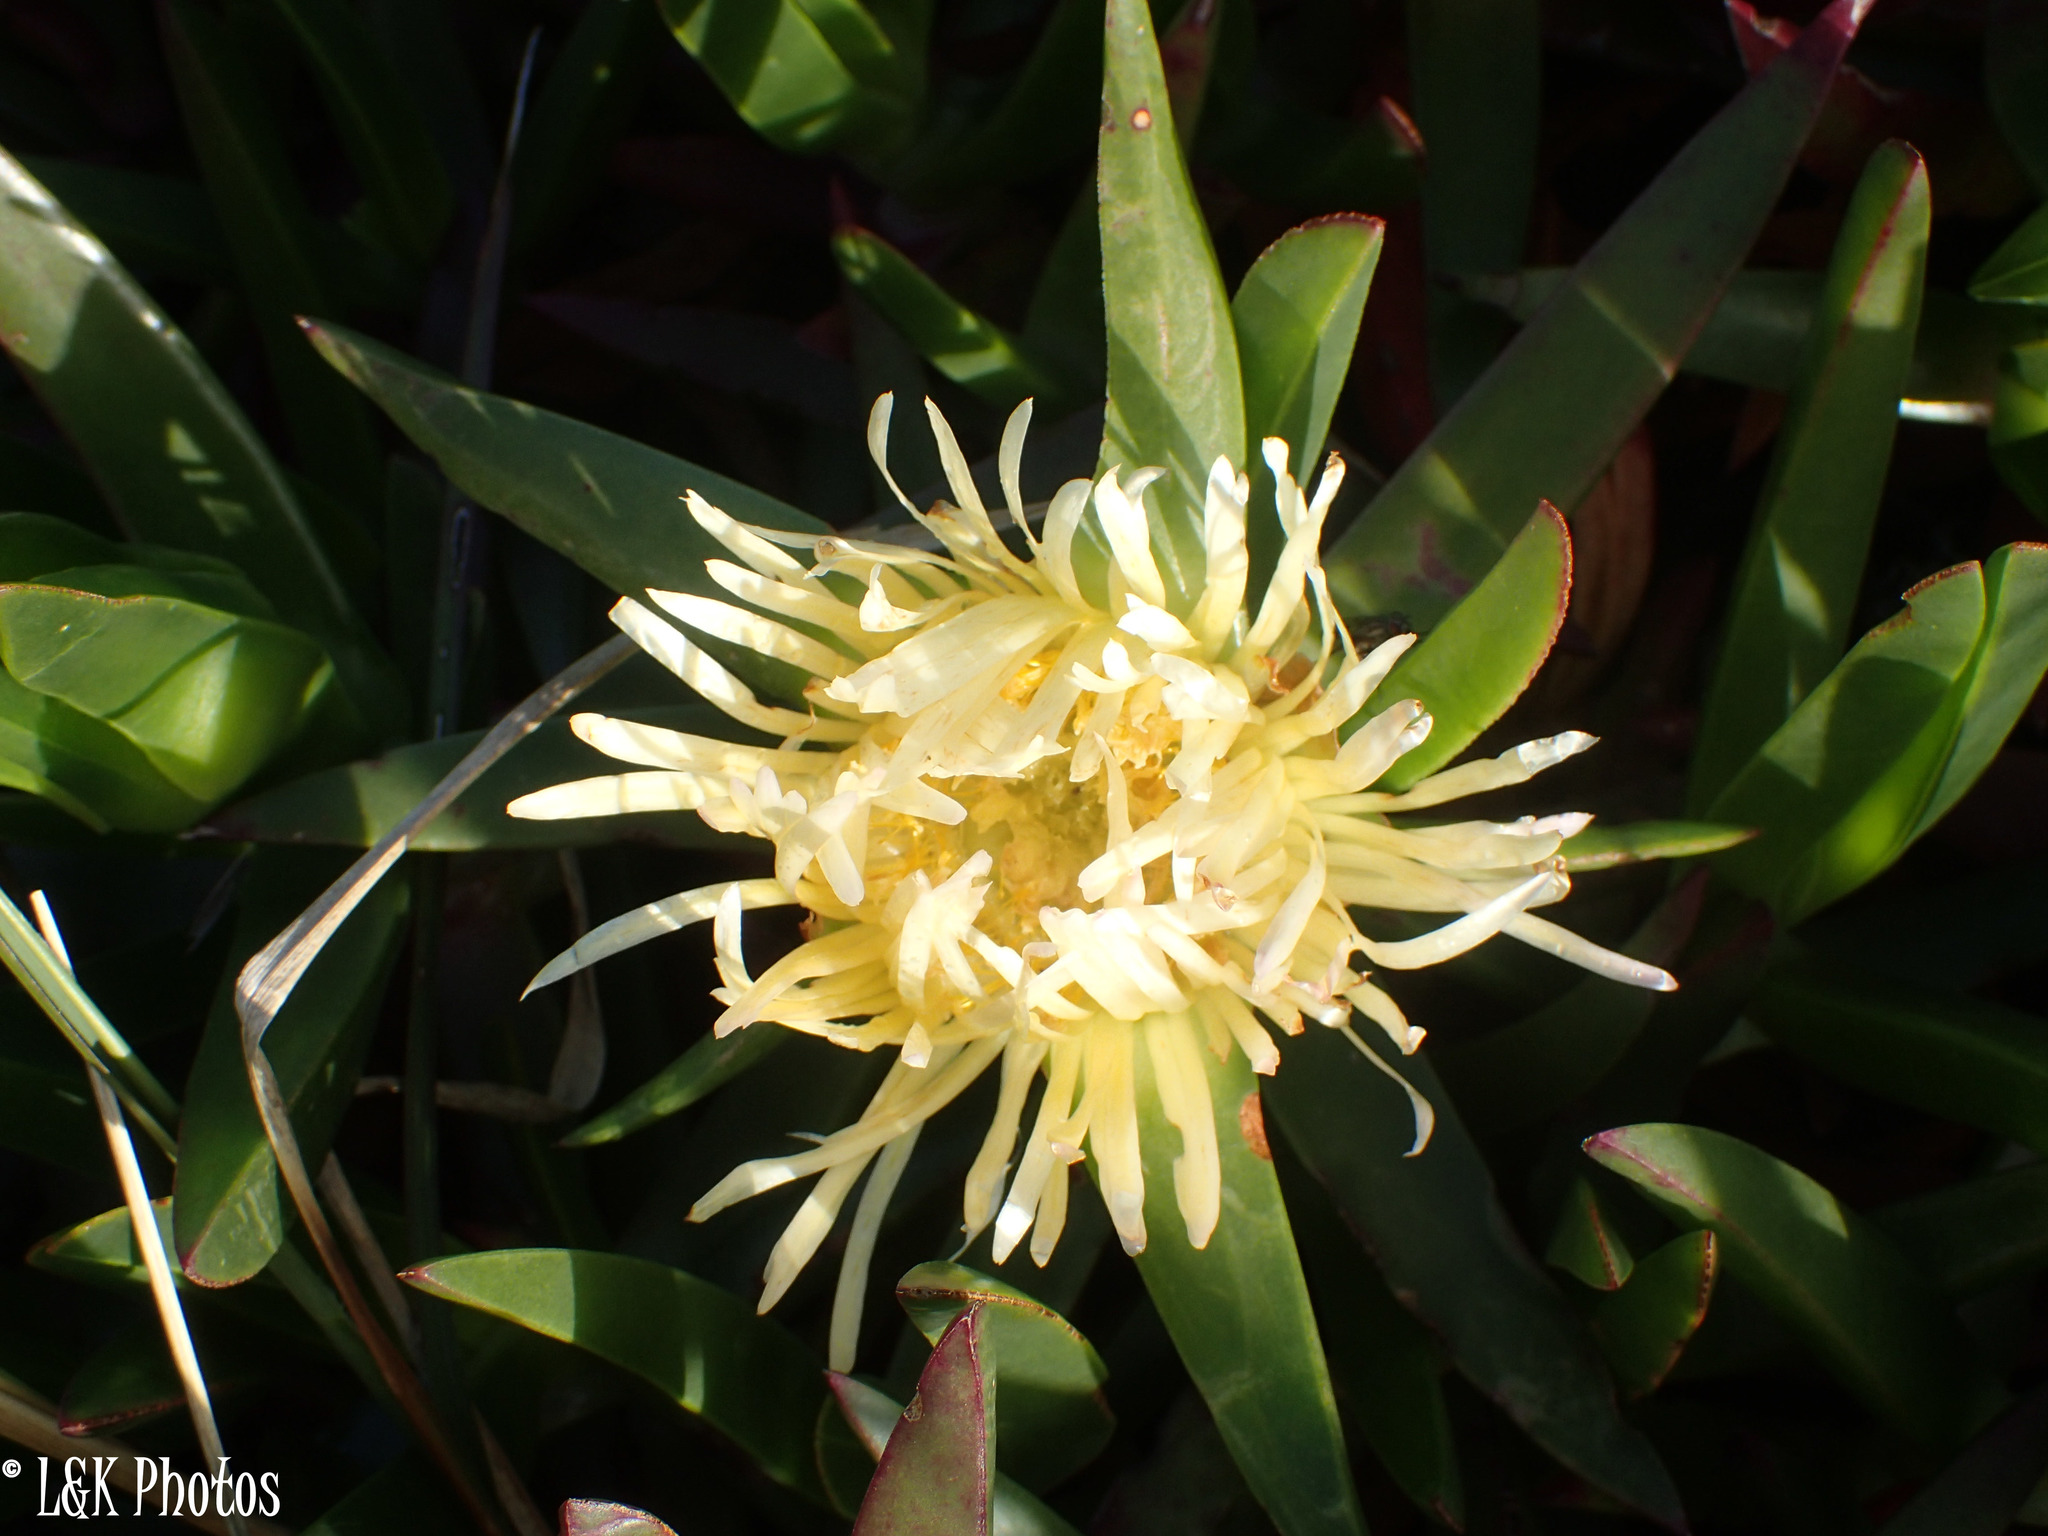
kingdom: Plantae
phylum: Tracheophyta
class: Magnoliopsida
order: Caryophyllales
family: Aizoaceae
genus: Carpobrotus
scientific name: Carpobrotus edulis
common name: Hottentot-fig
